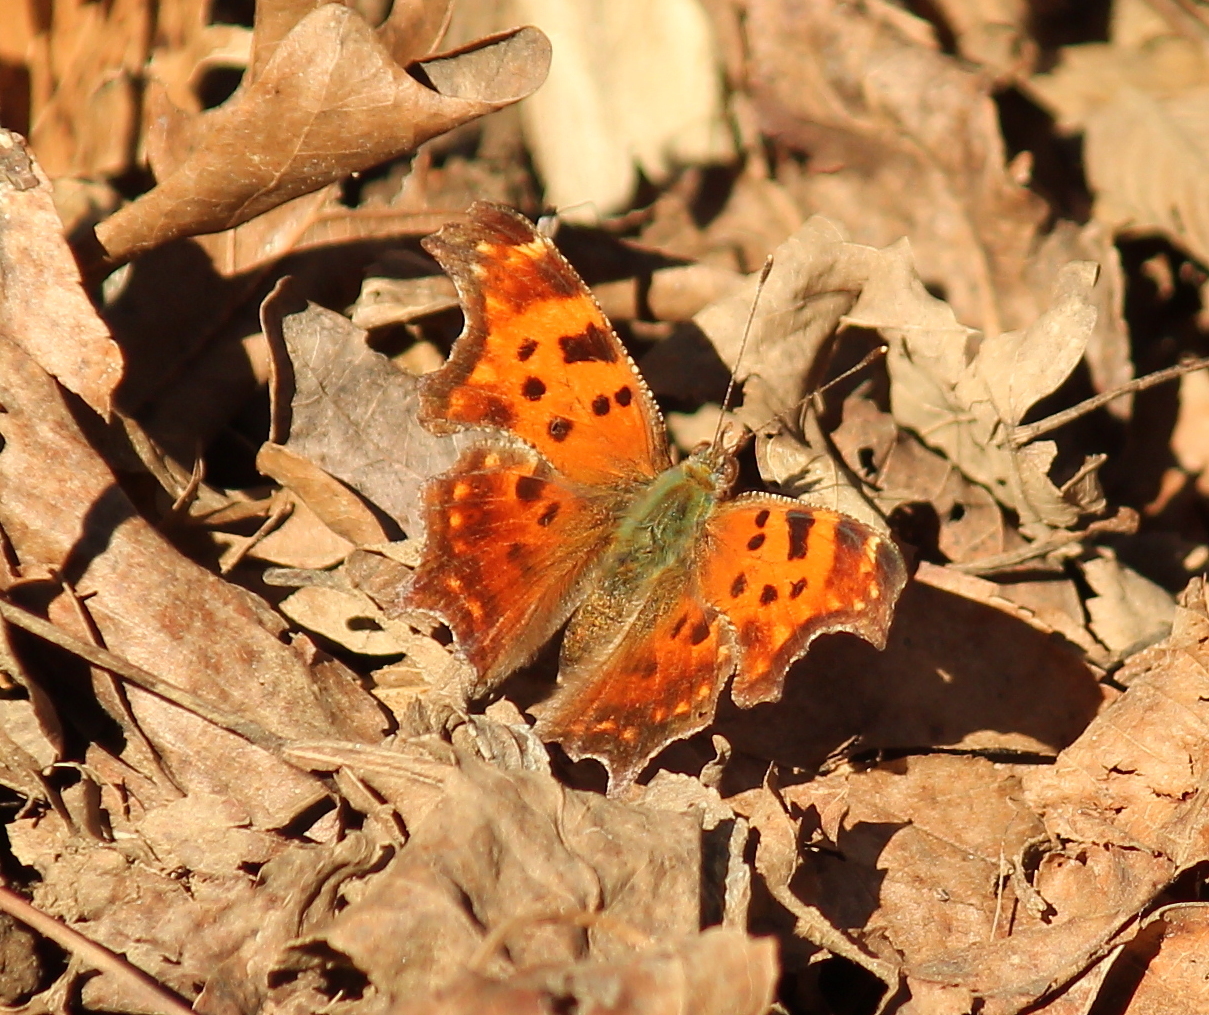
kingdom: Animalia
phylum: Arthropoda
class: Insecta
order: Lepidoptera
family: Nymphalidae
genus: Polygonia
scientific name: Polygonia comma
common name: Eastern comma
